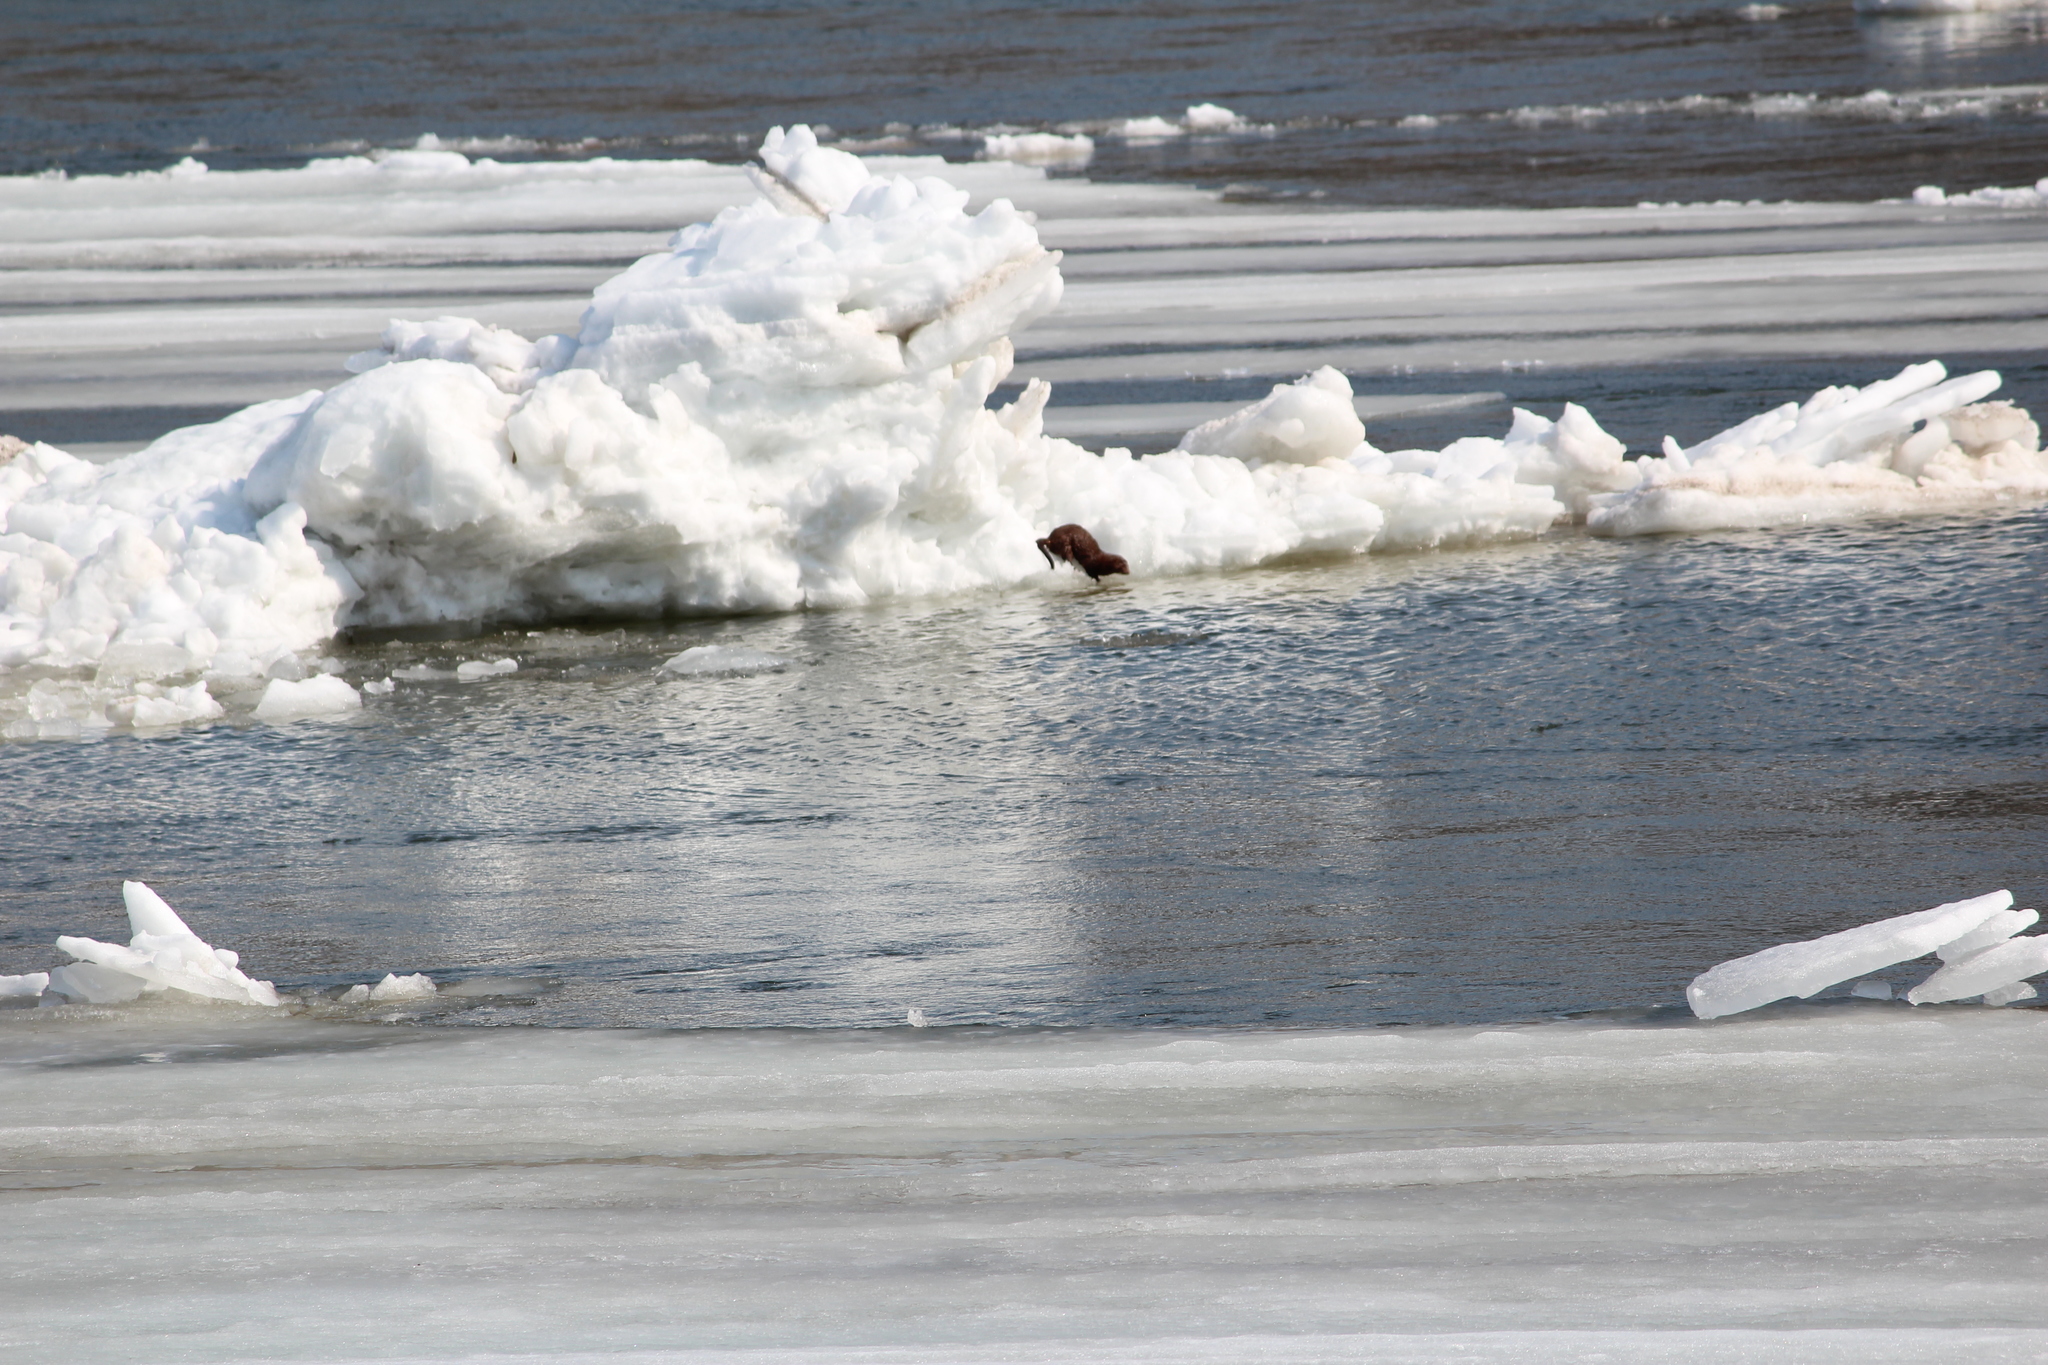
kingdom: Animalia
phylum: Chordata
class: Mammalia
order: Carnivora
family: Mustelidae
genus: Mustela
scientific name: Mustela
